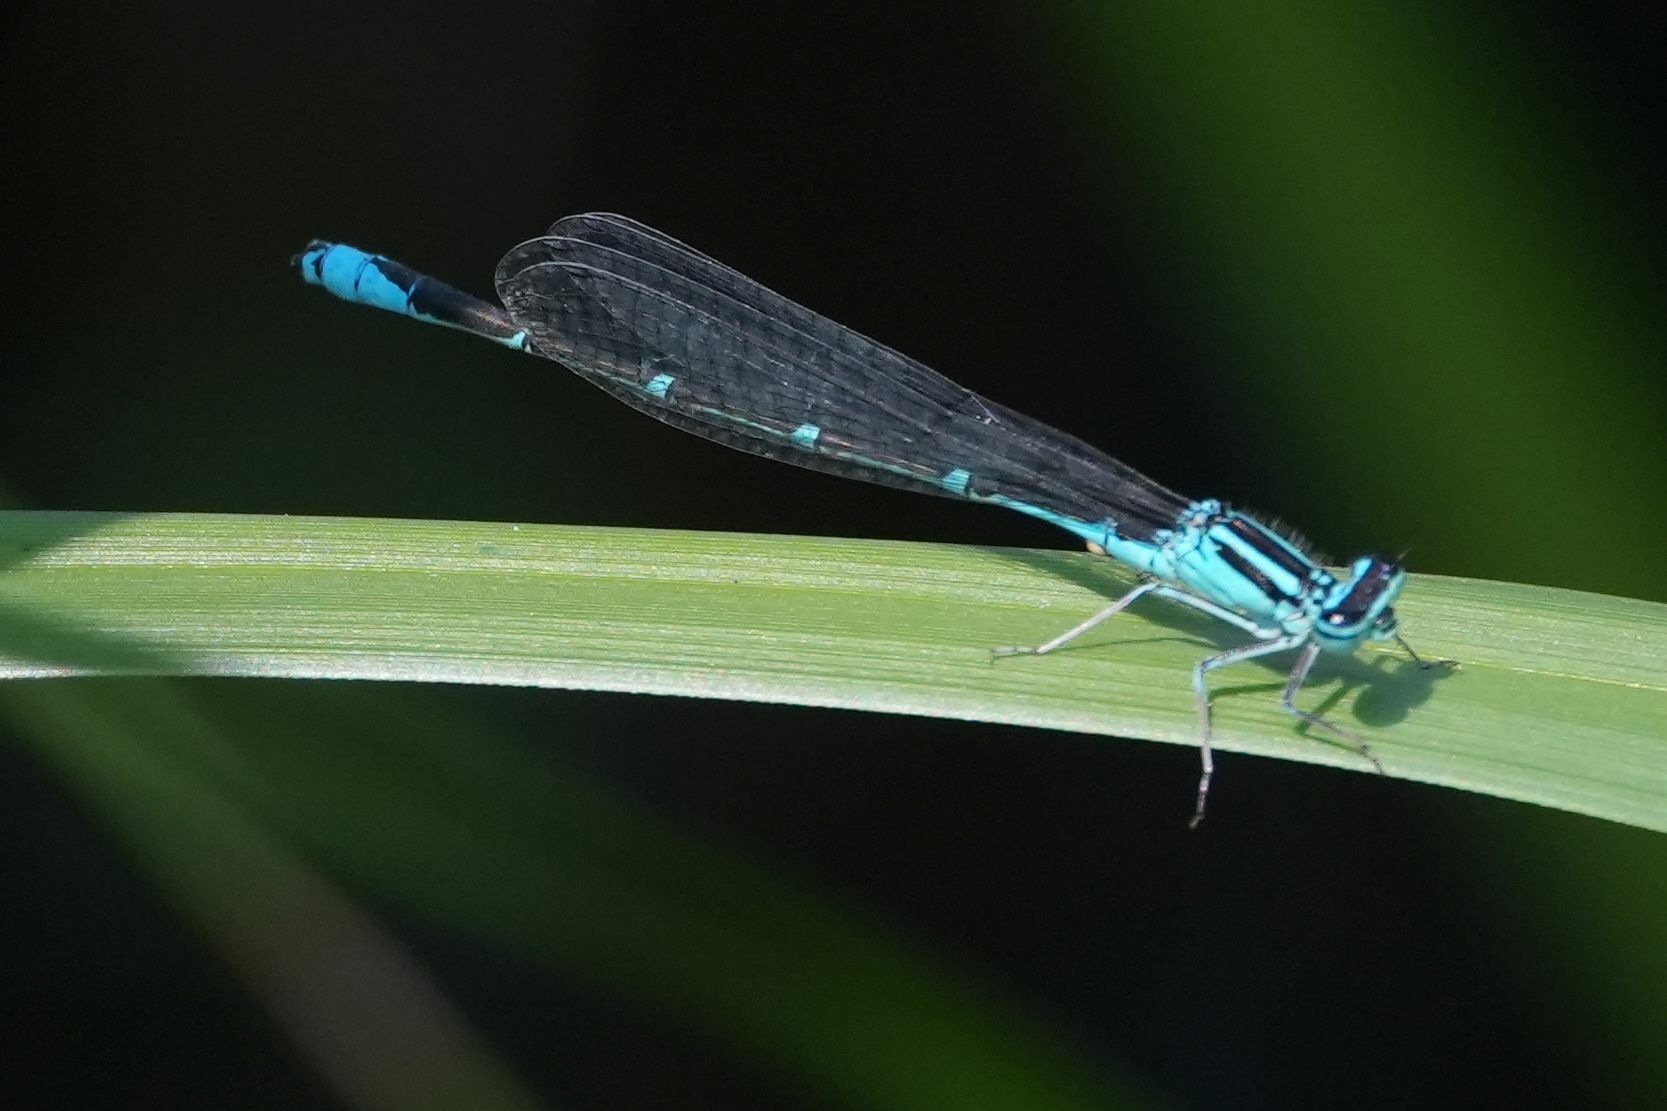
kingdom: Animalia
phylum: Arthropoda
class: Insecta
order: Odonata
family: Coenagrionidae
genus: Enallagma
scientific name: Enallagma exsulans
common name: Stream bluet
